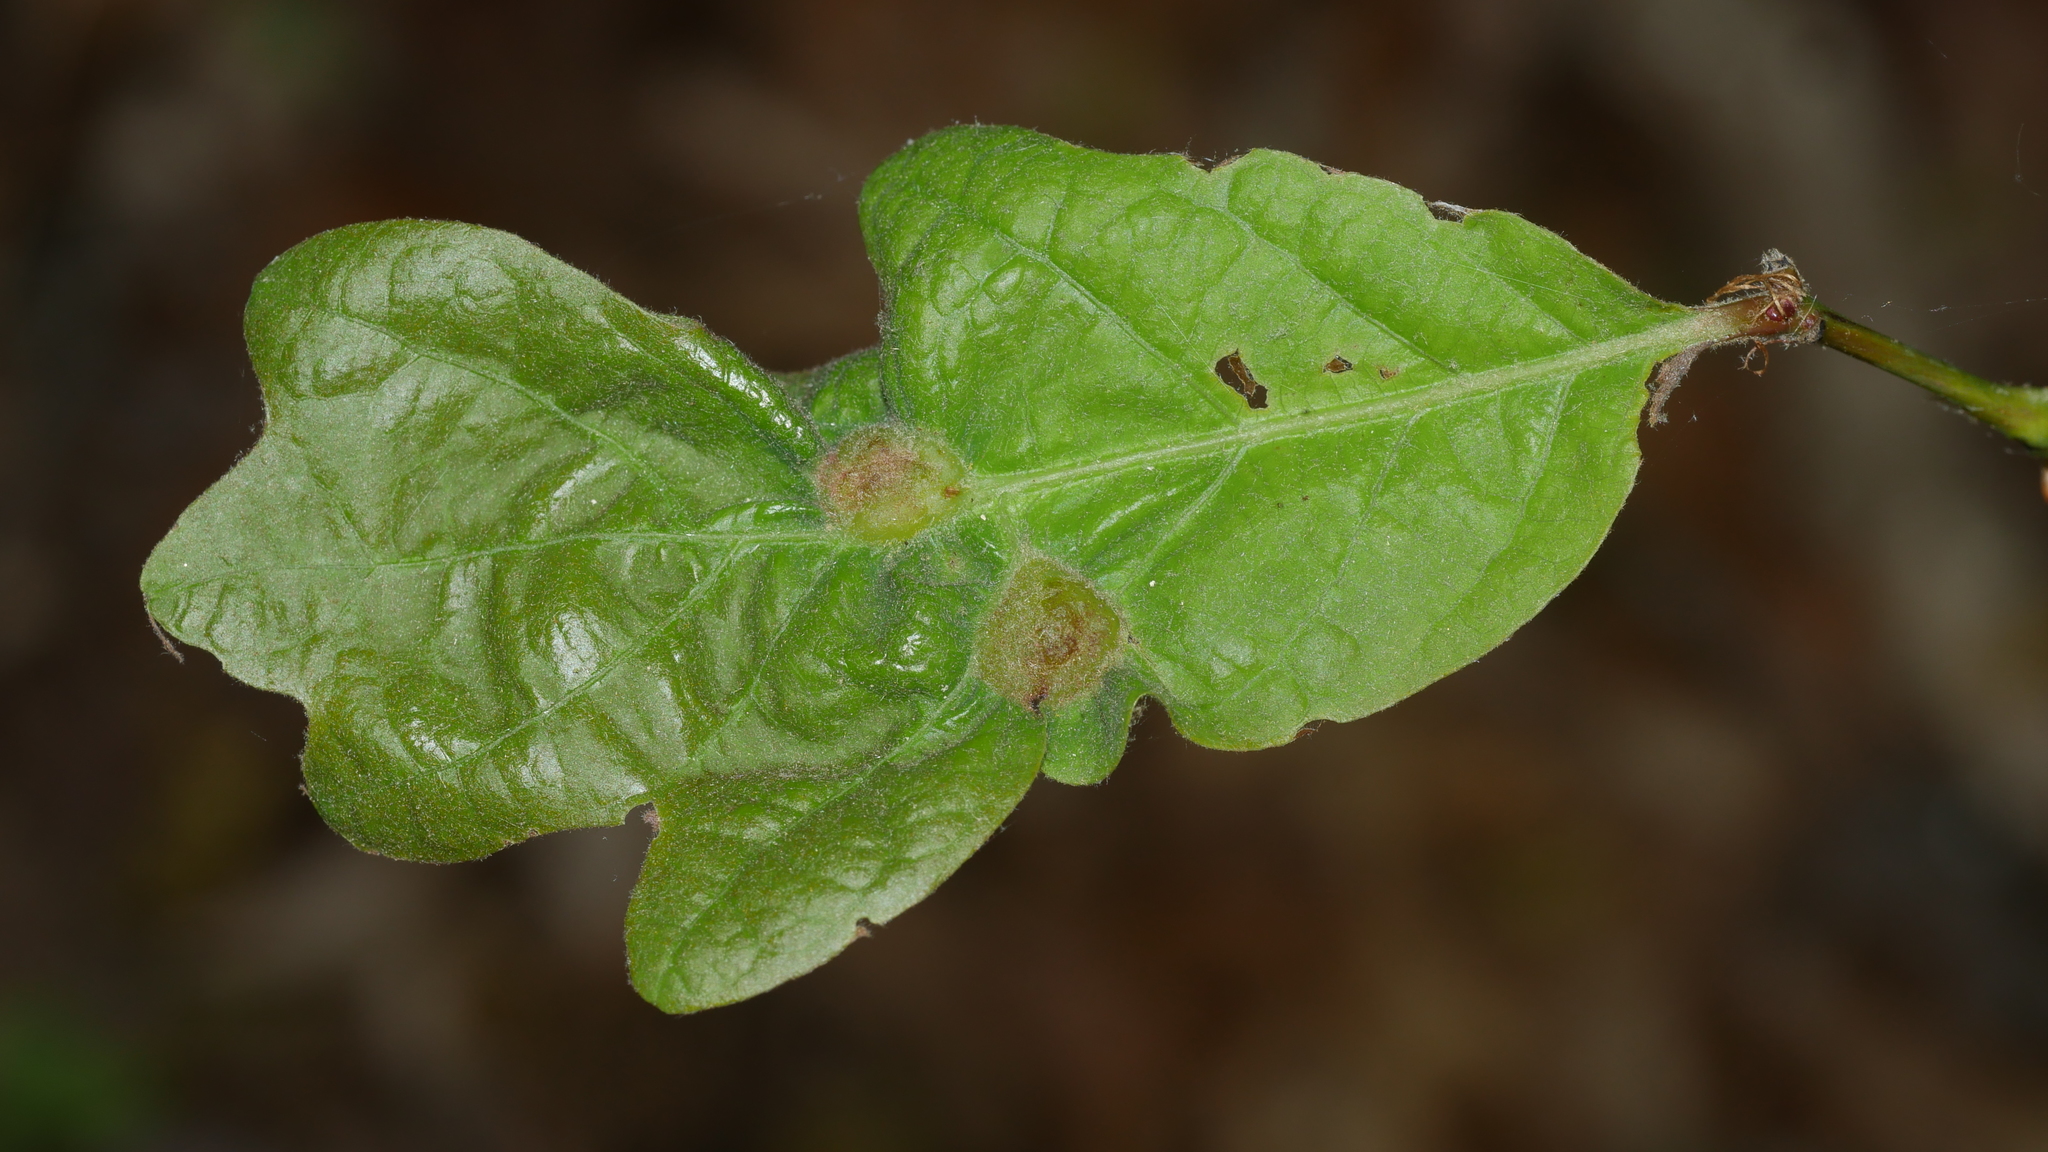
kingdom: Animalia
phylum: Arthropoda
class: Insecta
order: Hymenoptera
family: Cynipidae
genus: Neuroterus
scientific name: Neuroterus quercusirregularis
